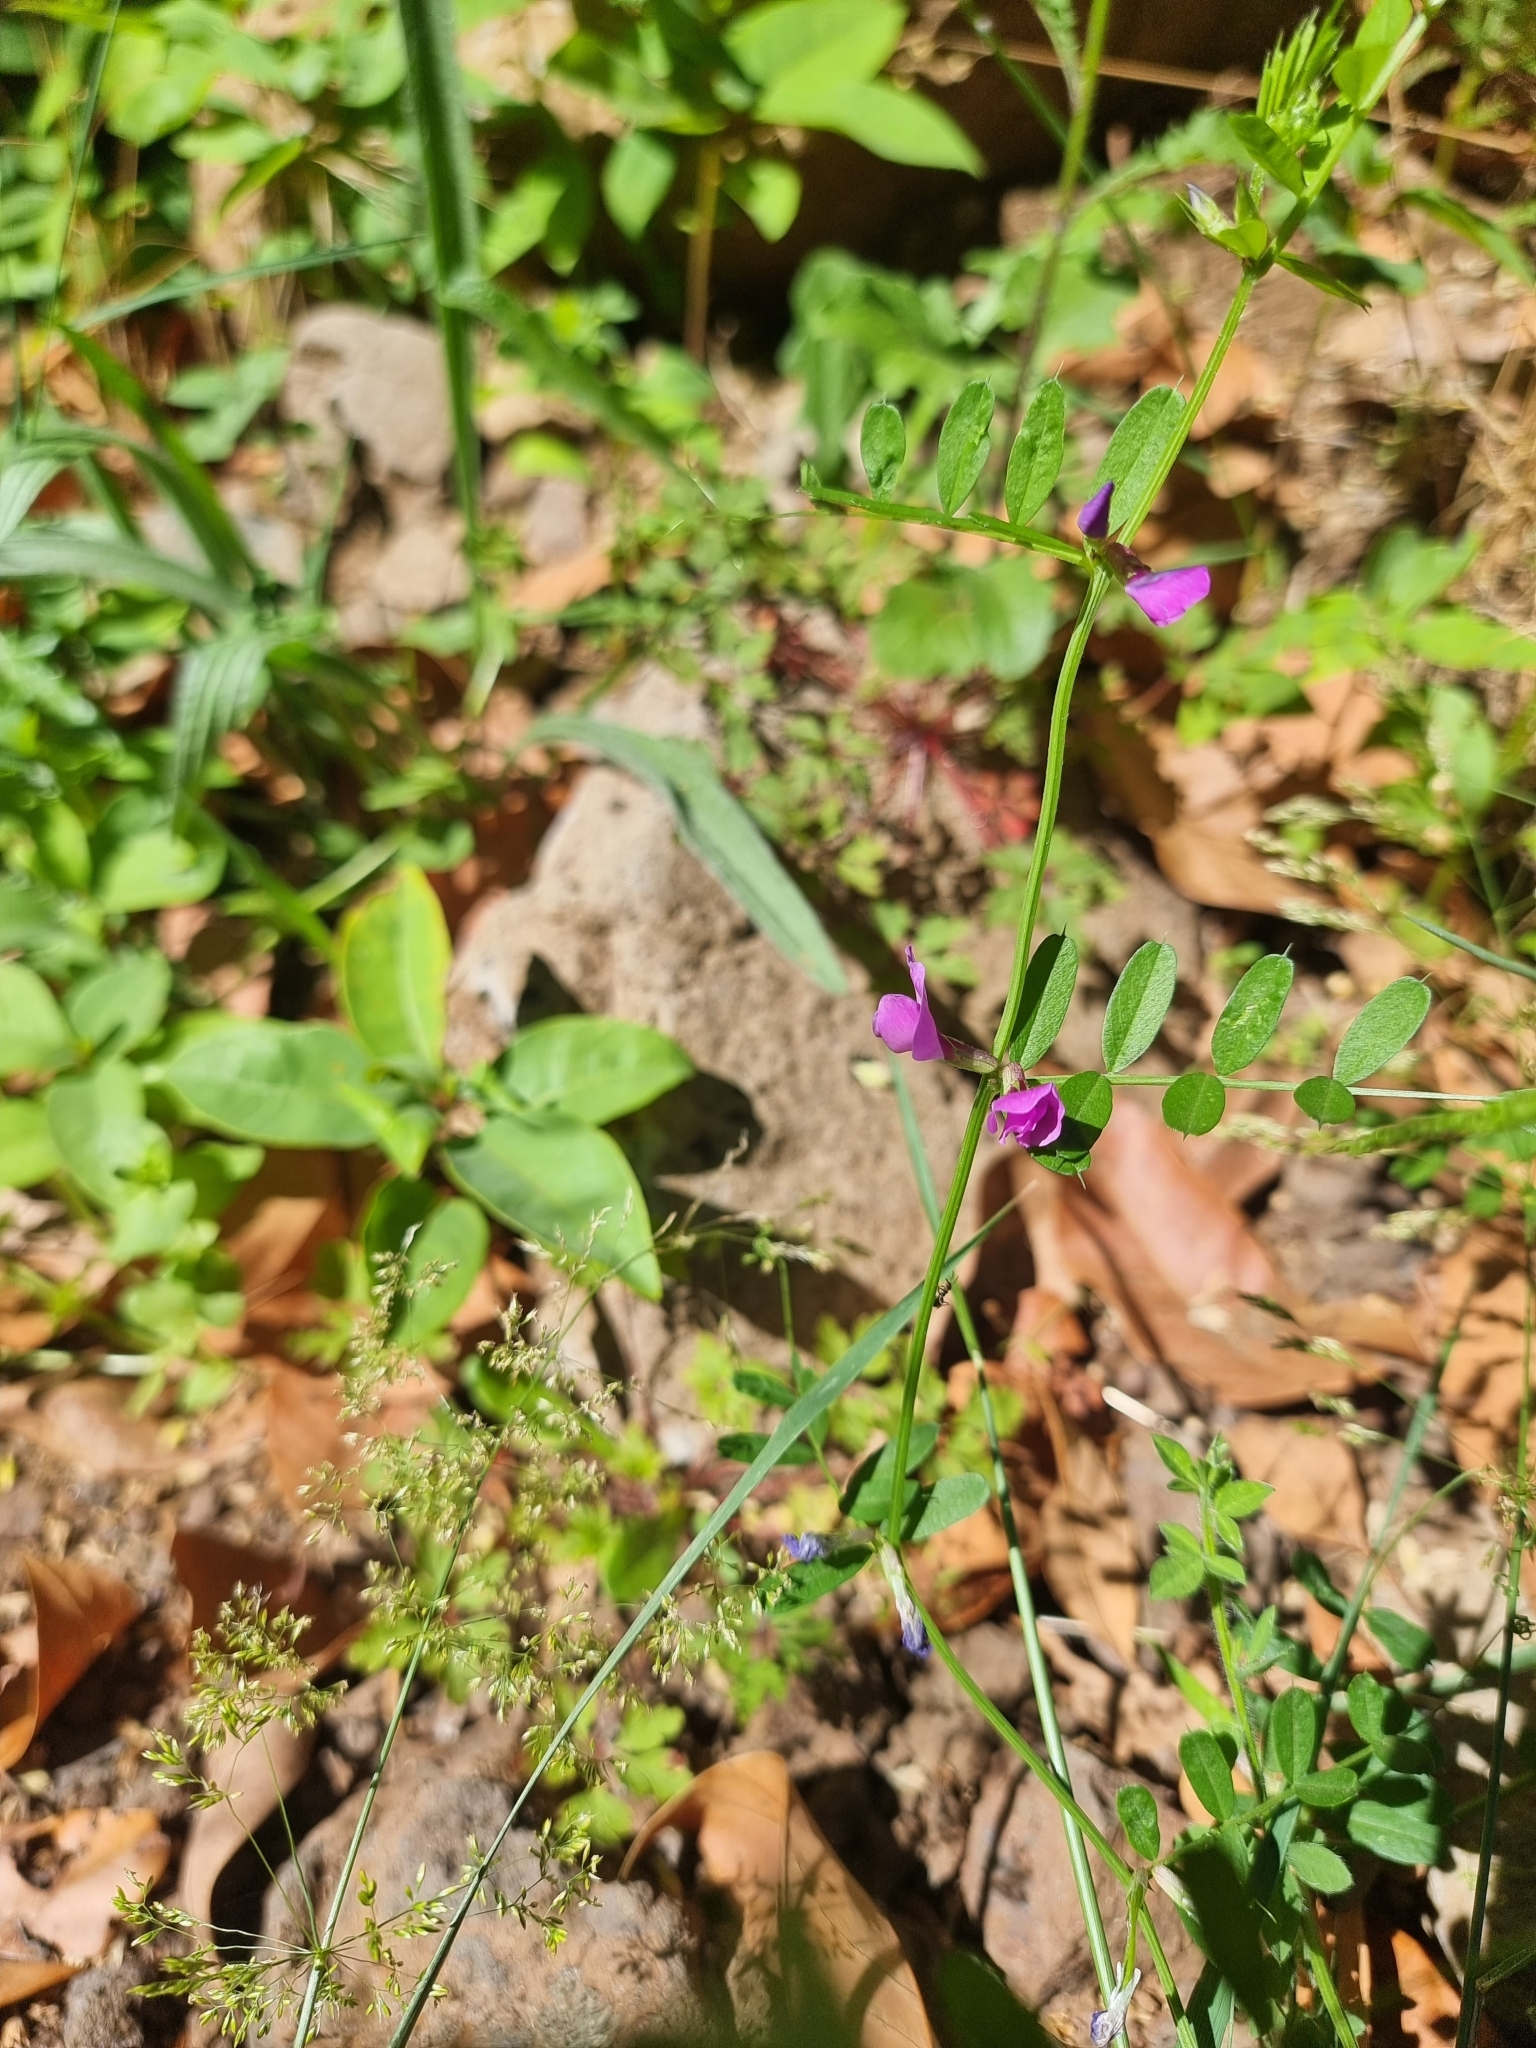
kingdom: Plantae
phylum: Tracheophyta
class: Magnoliopsida
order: Fabales
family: Fabaceae
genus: Vicia
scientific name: Vicia sativa
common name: Garden vetch
